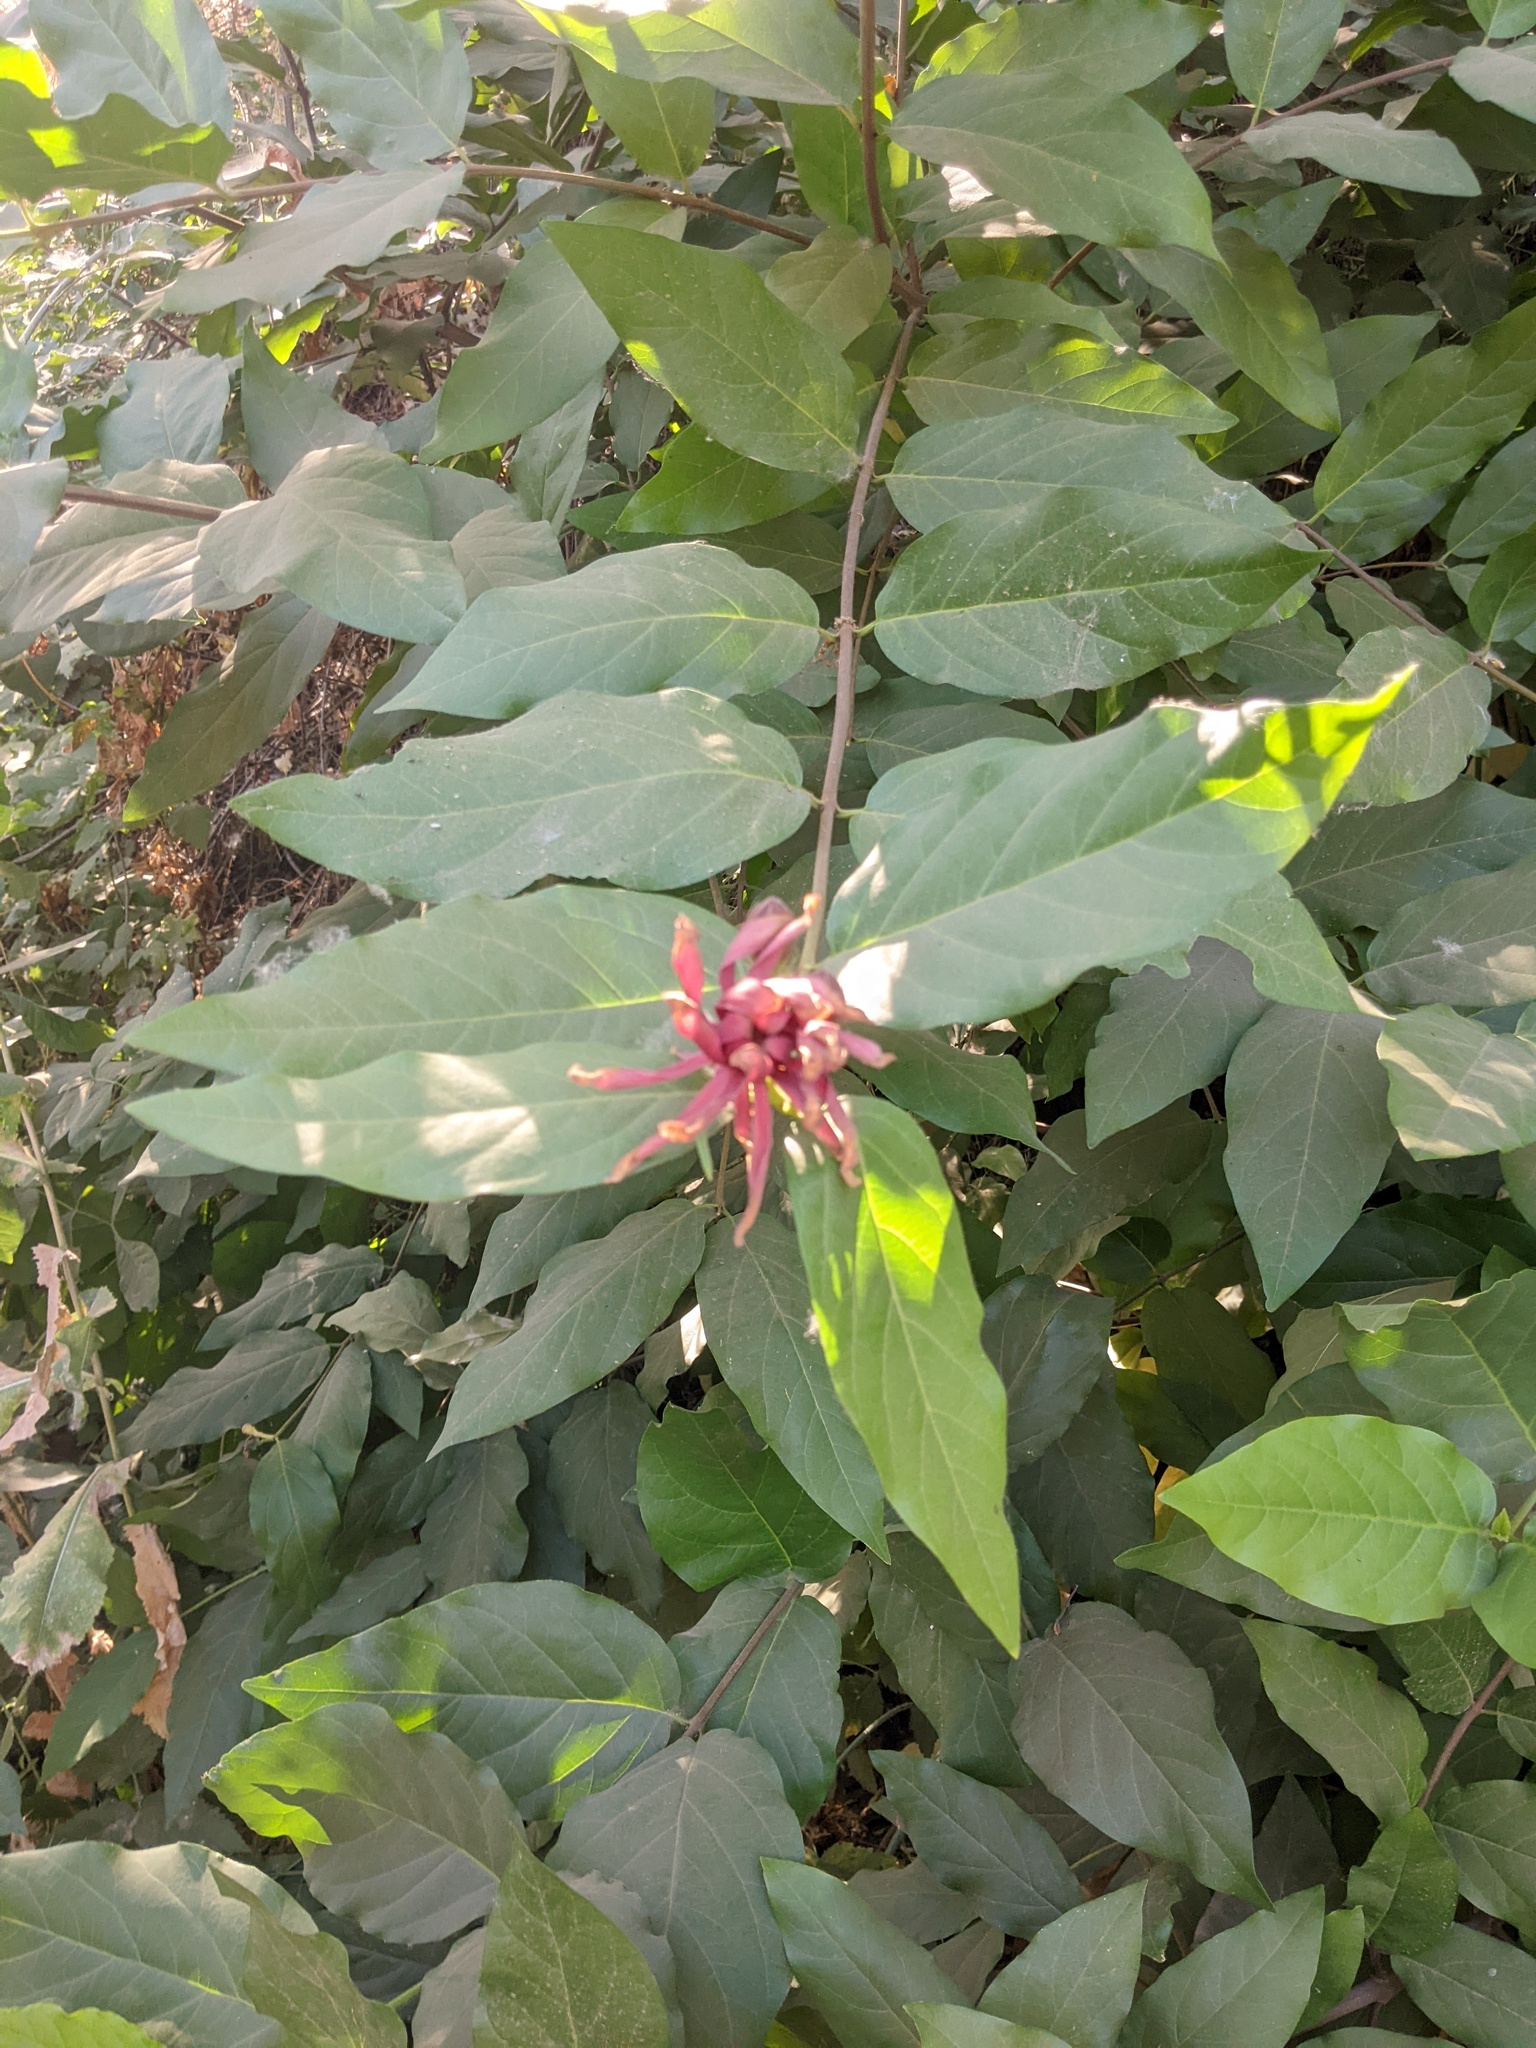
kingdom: Plantae
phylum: Tracheophyta
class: Magnoliopsida
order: Laurales
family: Calycanthaceae
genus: Calycanthus
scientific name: Calycanthus occidentalis
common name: California spicebush
